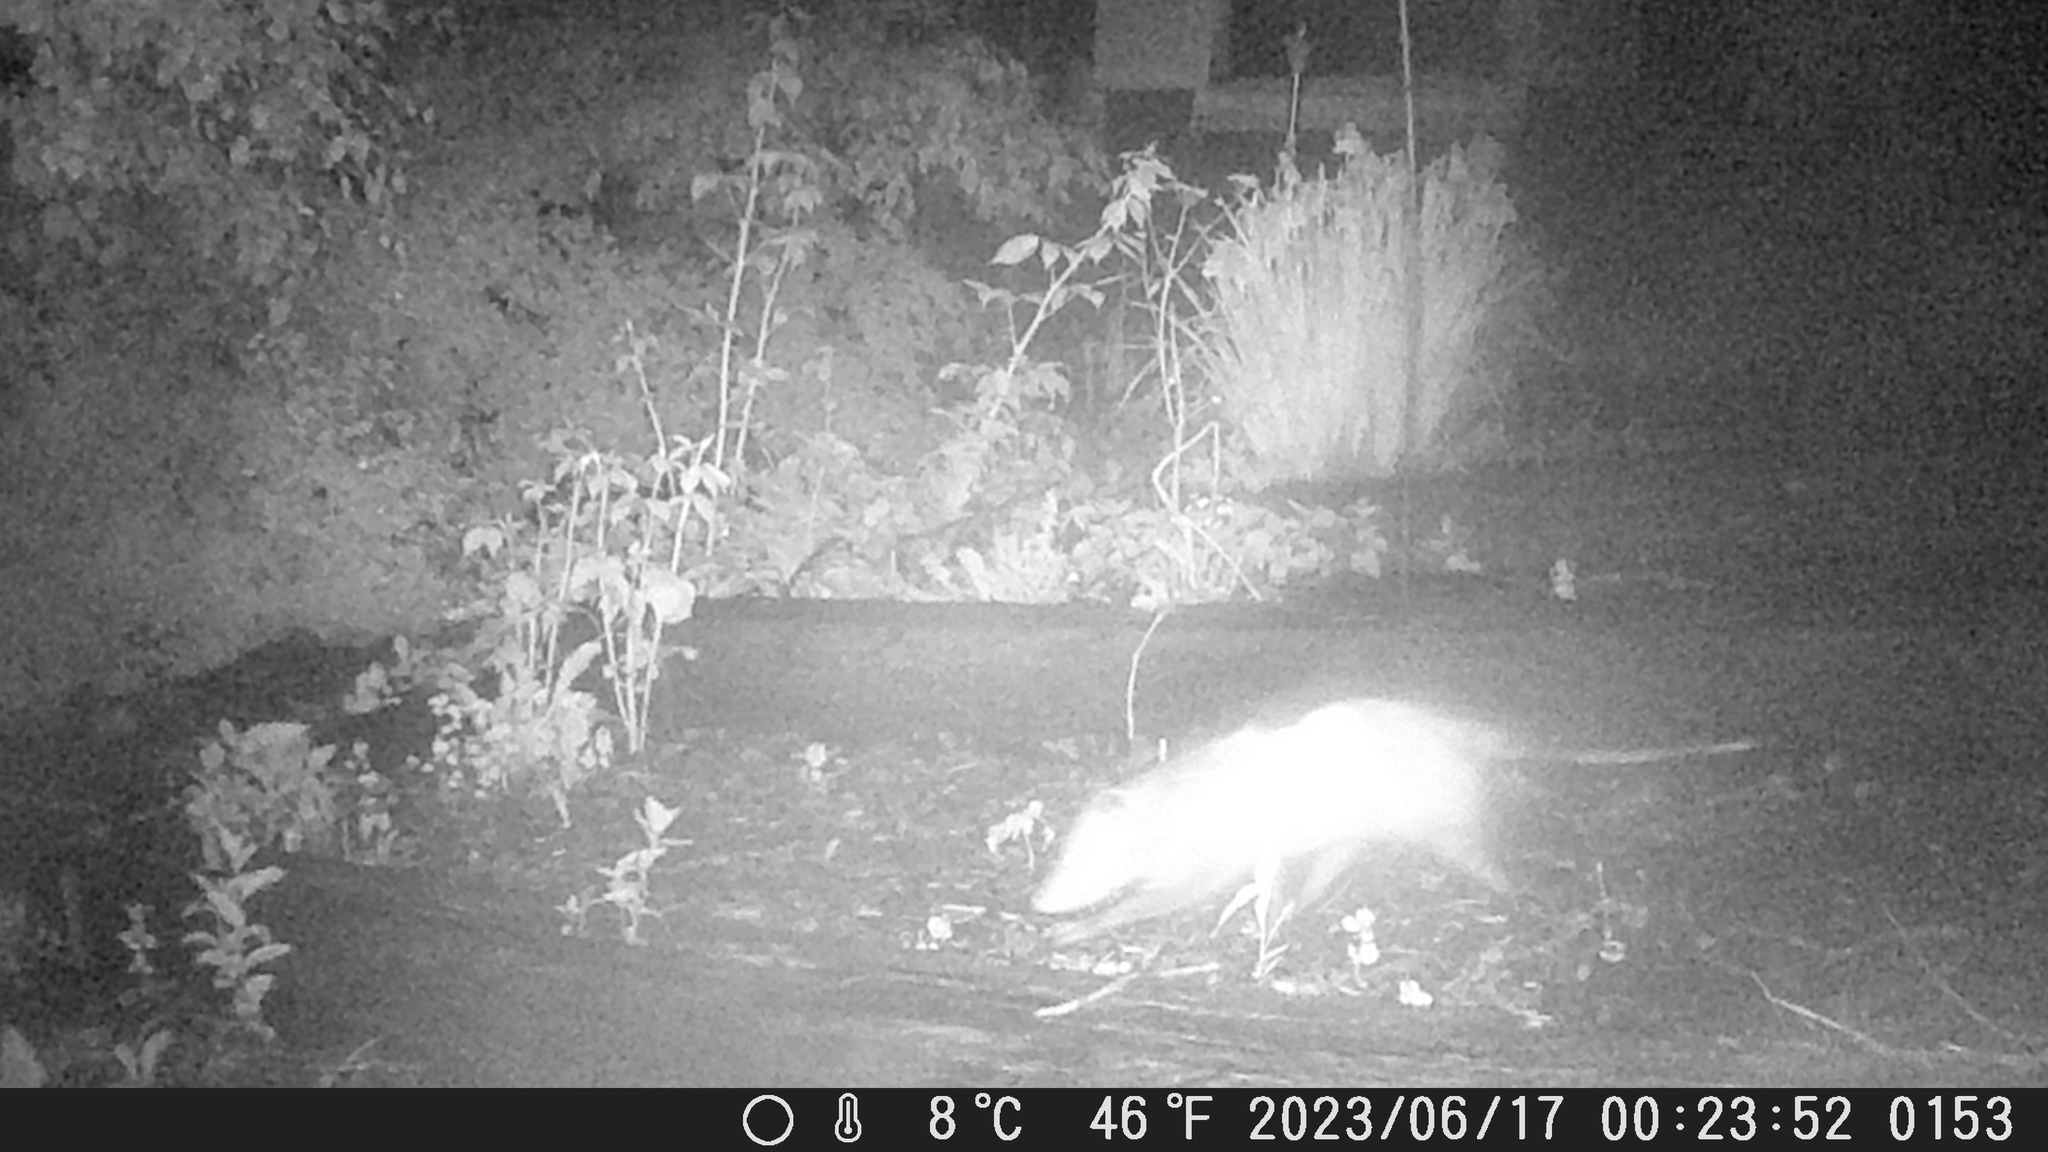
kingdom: Animalia
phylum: Chordata
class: Mammalia
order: Didelphimorphia
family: Didelphidae
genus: Didelphis
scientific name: Didelphis virginiana
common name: Virginia opossum
